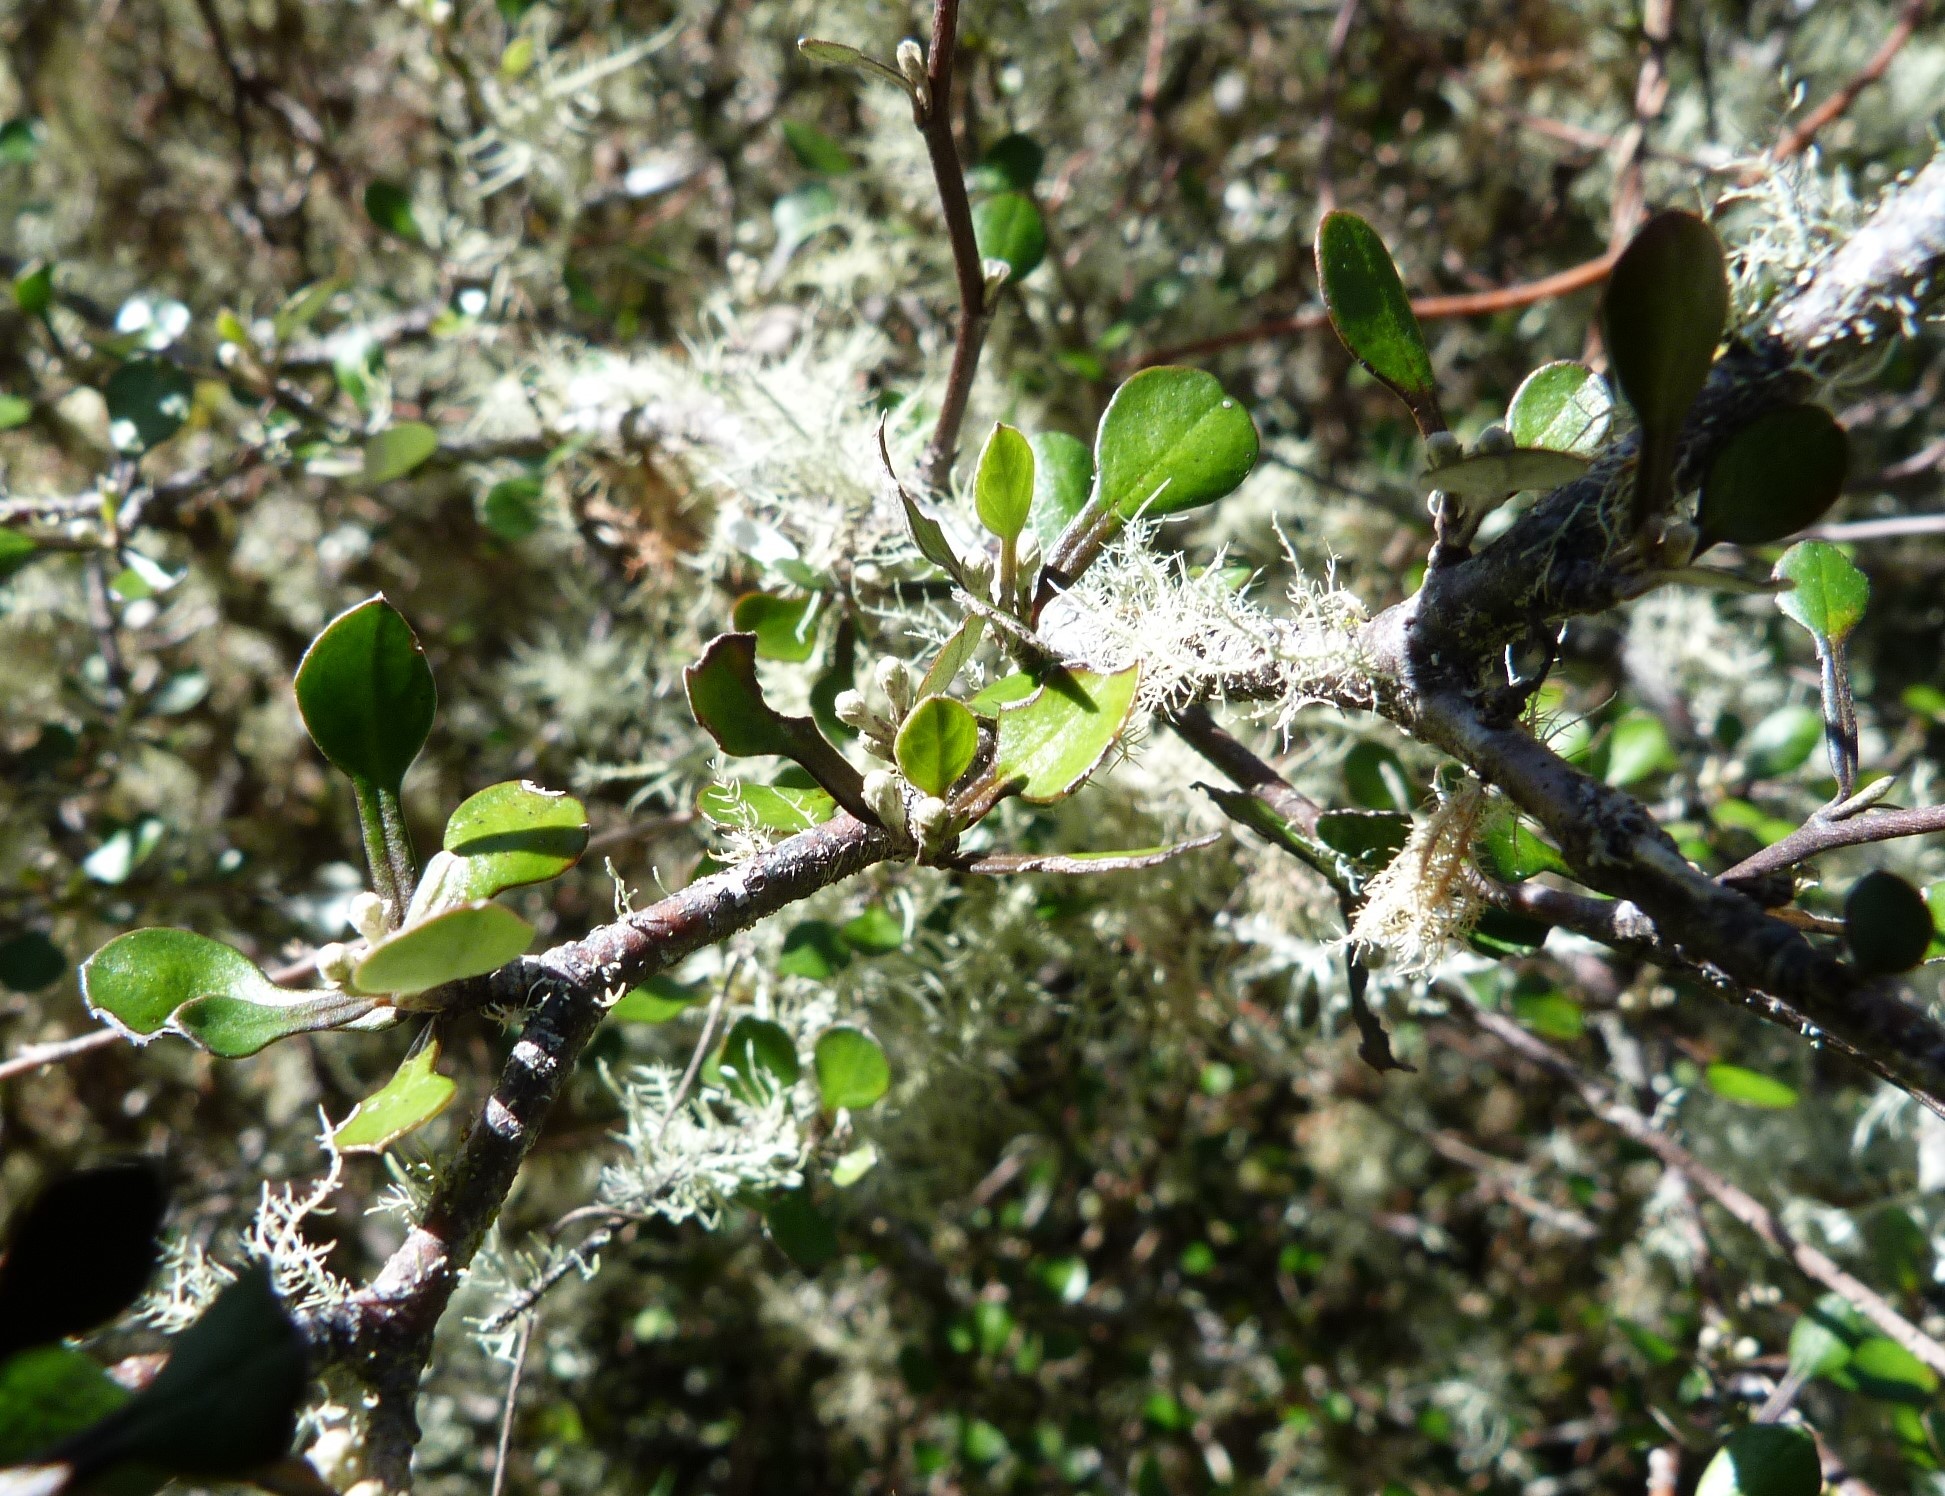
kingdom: Plantae
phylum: Tracheophyta
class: Magnoliopsida
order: Asterales
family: Argophyllaceae
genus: Corokia
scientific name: Corokia cotoneaster
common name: Wire nettingbush
